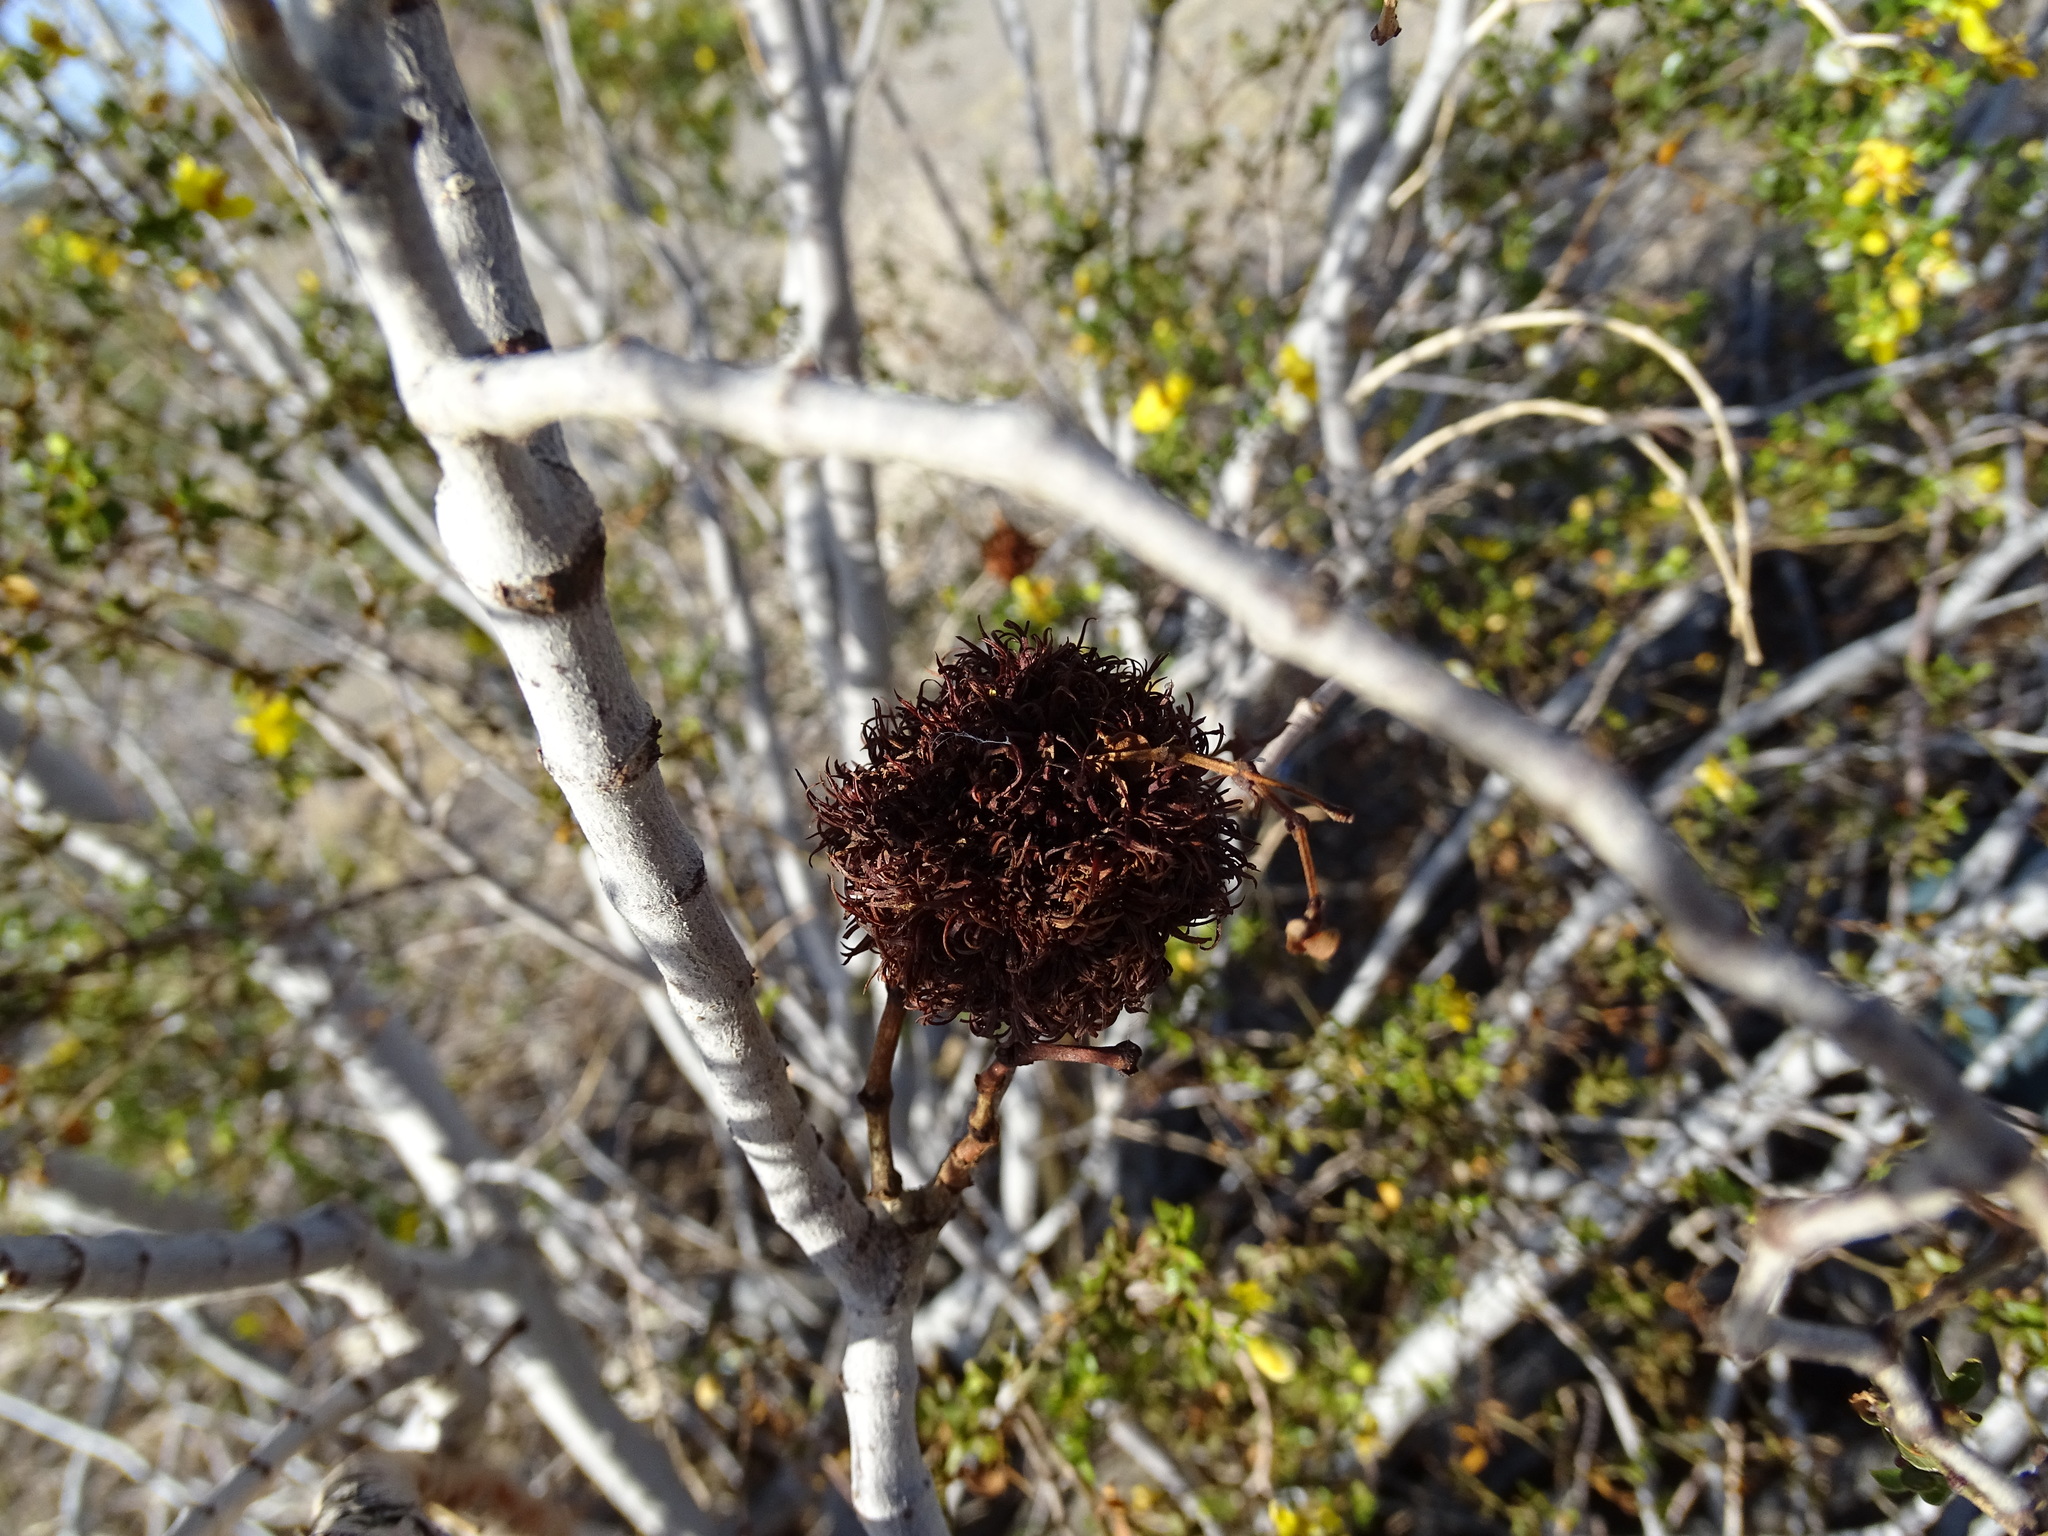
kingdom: Animalia
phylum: Arthropoda
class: Insecta
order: Diptera
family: Cecidomyiidae
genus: Asphondylia
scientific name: Asphondylia auripila
